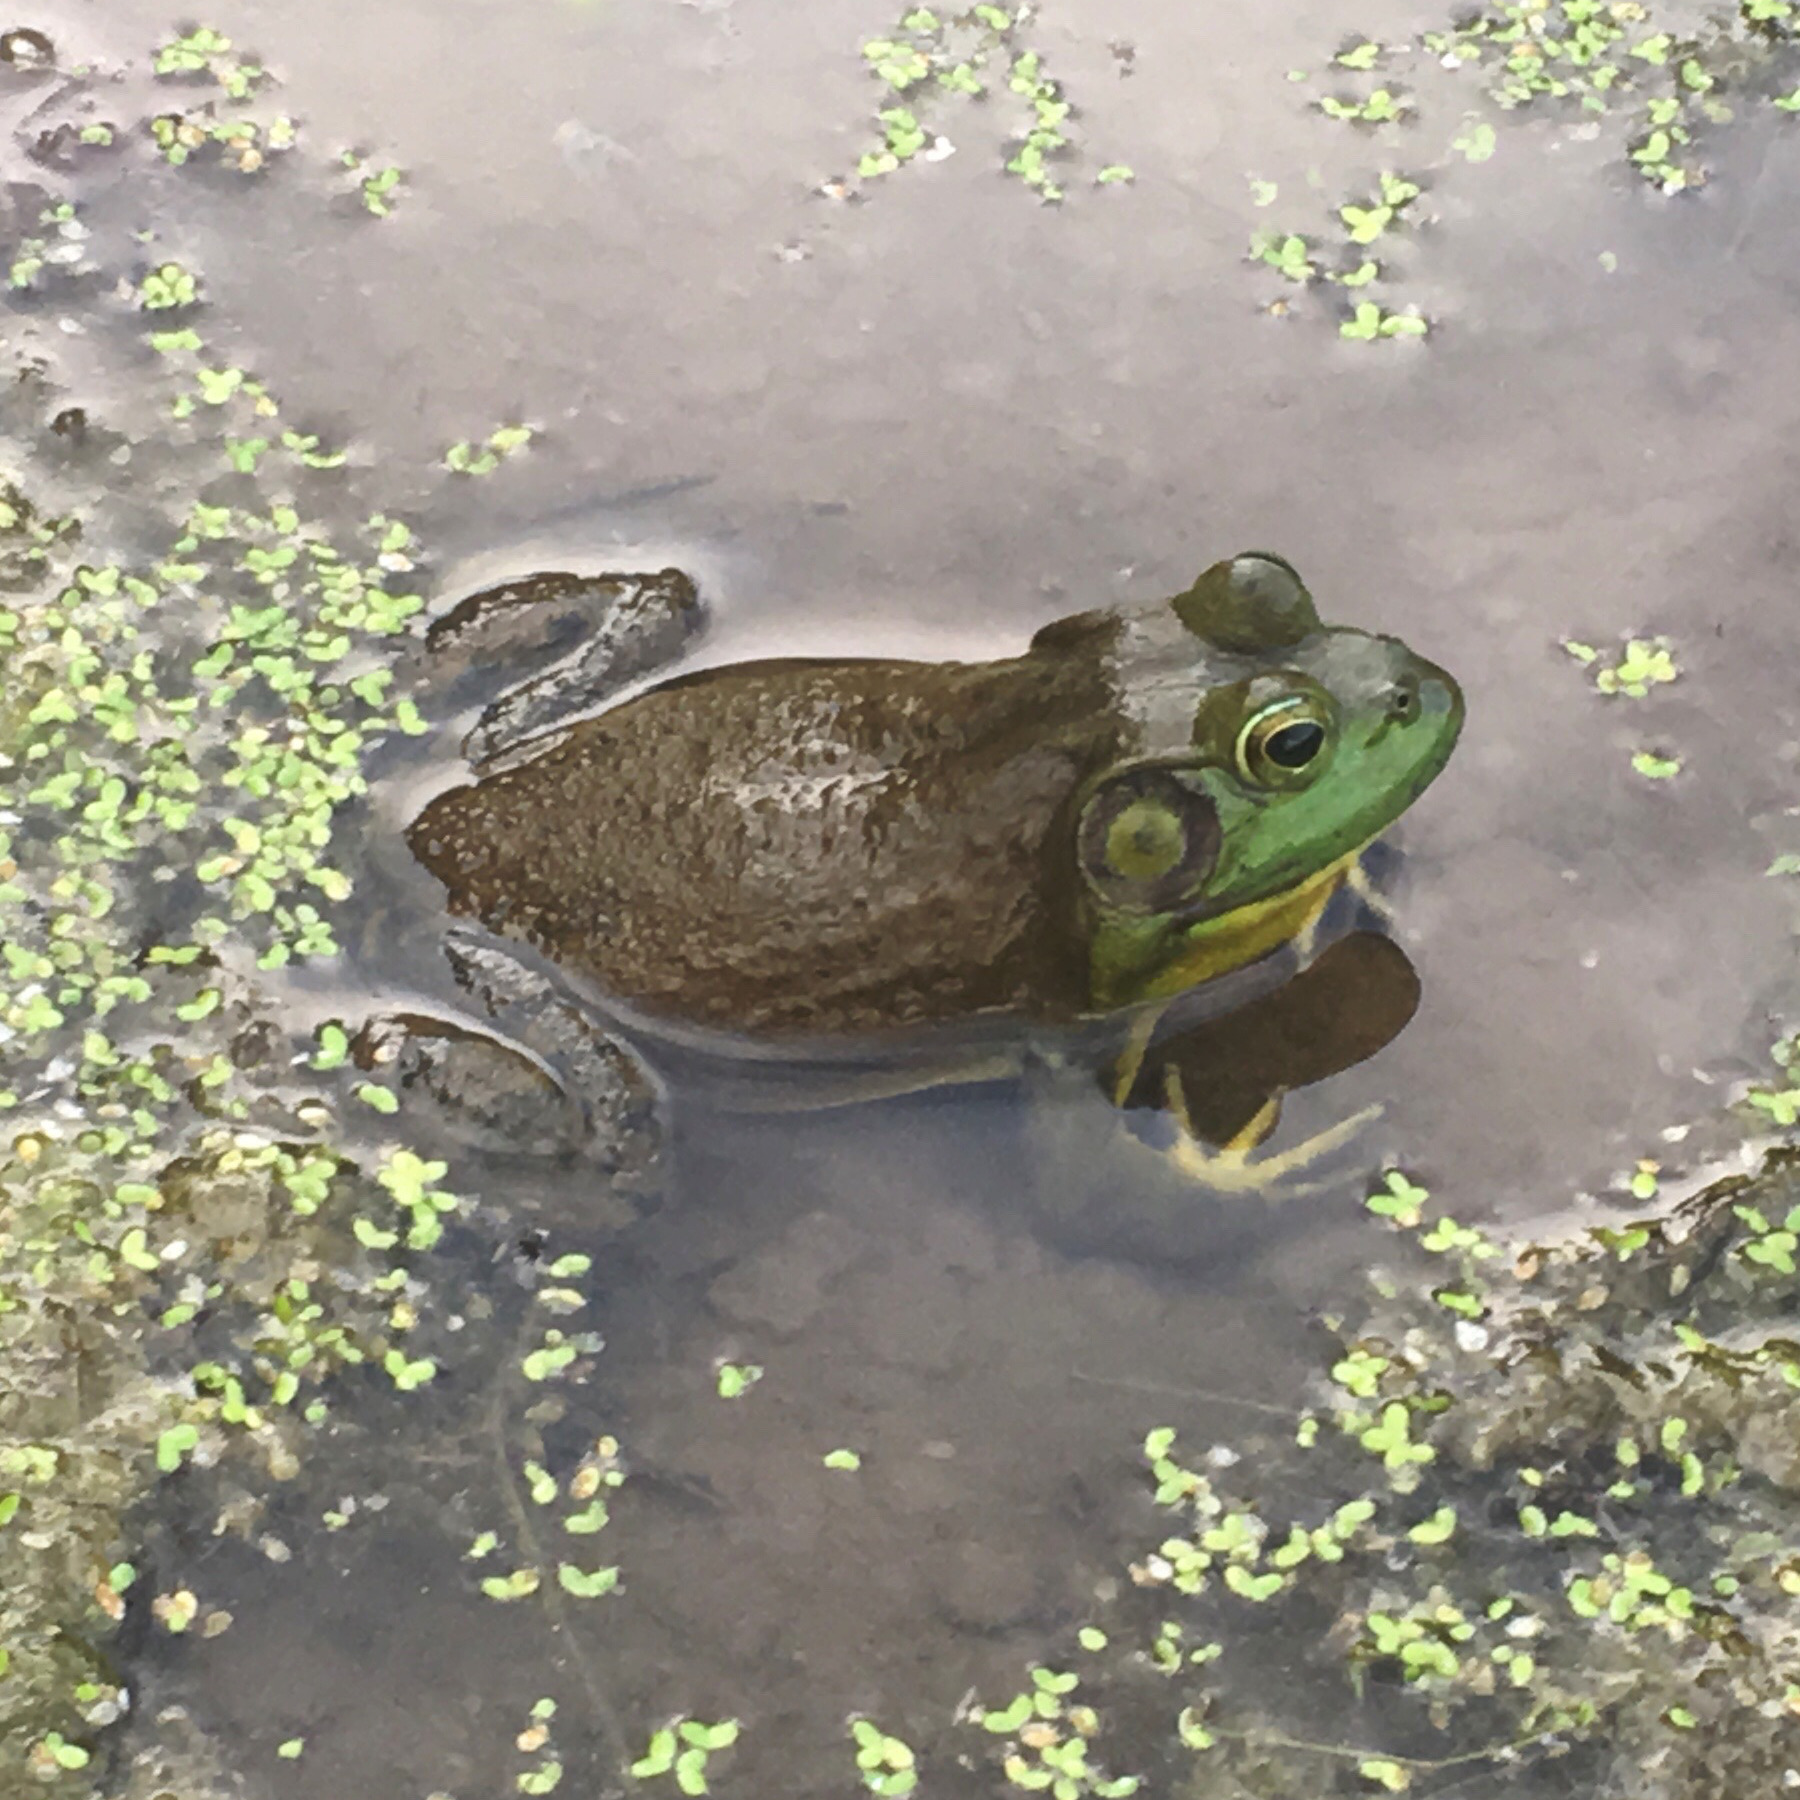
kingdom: Animalia
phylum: Chordata
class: Amphibia
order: Anura
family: Ranidae
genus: Lithobates
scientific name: Lithobates catesbeianus
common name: American bullfrog
